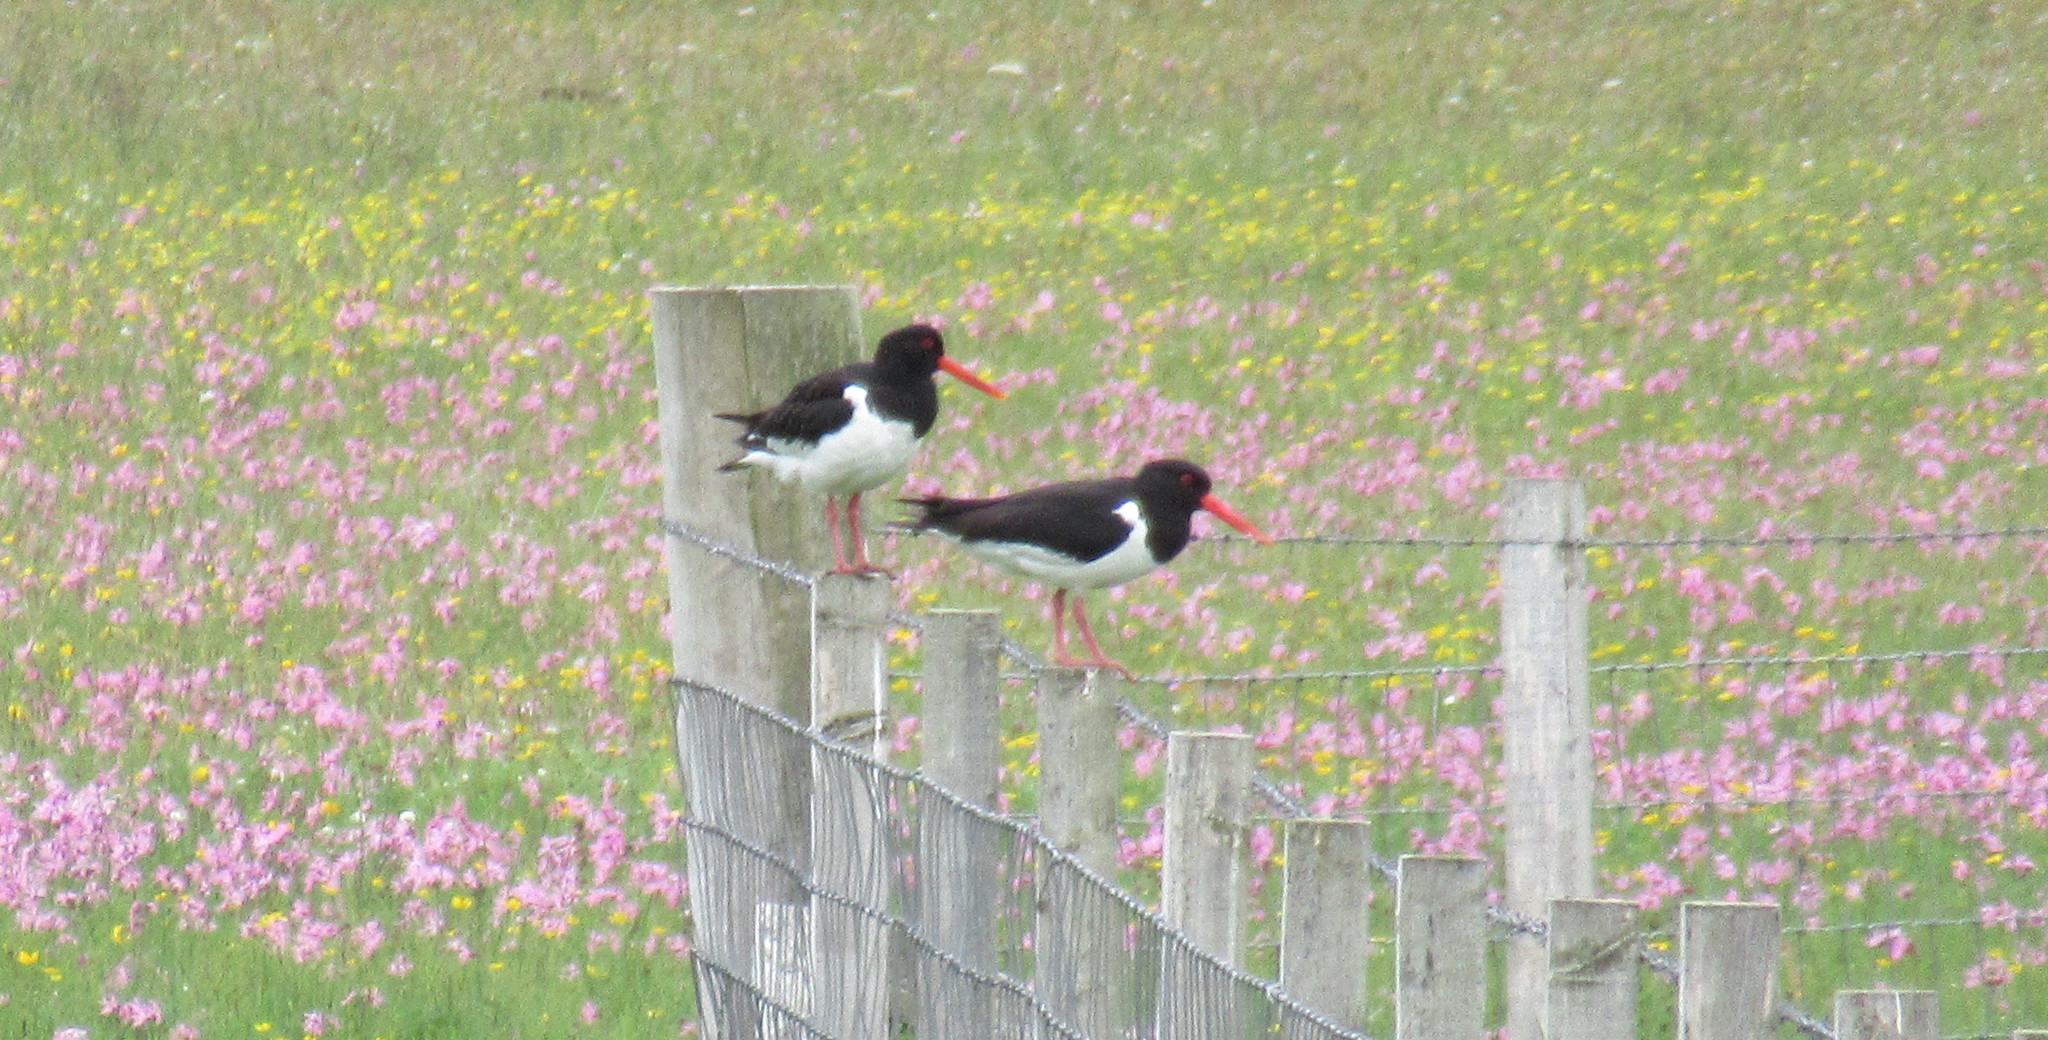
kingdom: Animalia
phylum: Chordata
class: Aves
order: Charadriiformes
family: Haematopodidae
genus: Haematopus
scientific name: Haematopus ostralegus
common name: Eurasian oystercatcher
